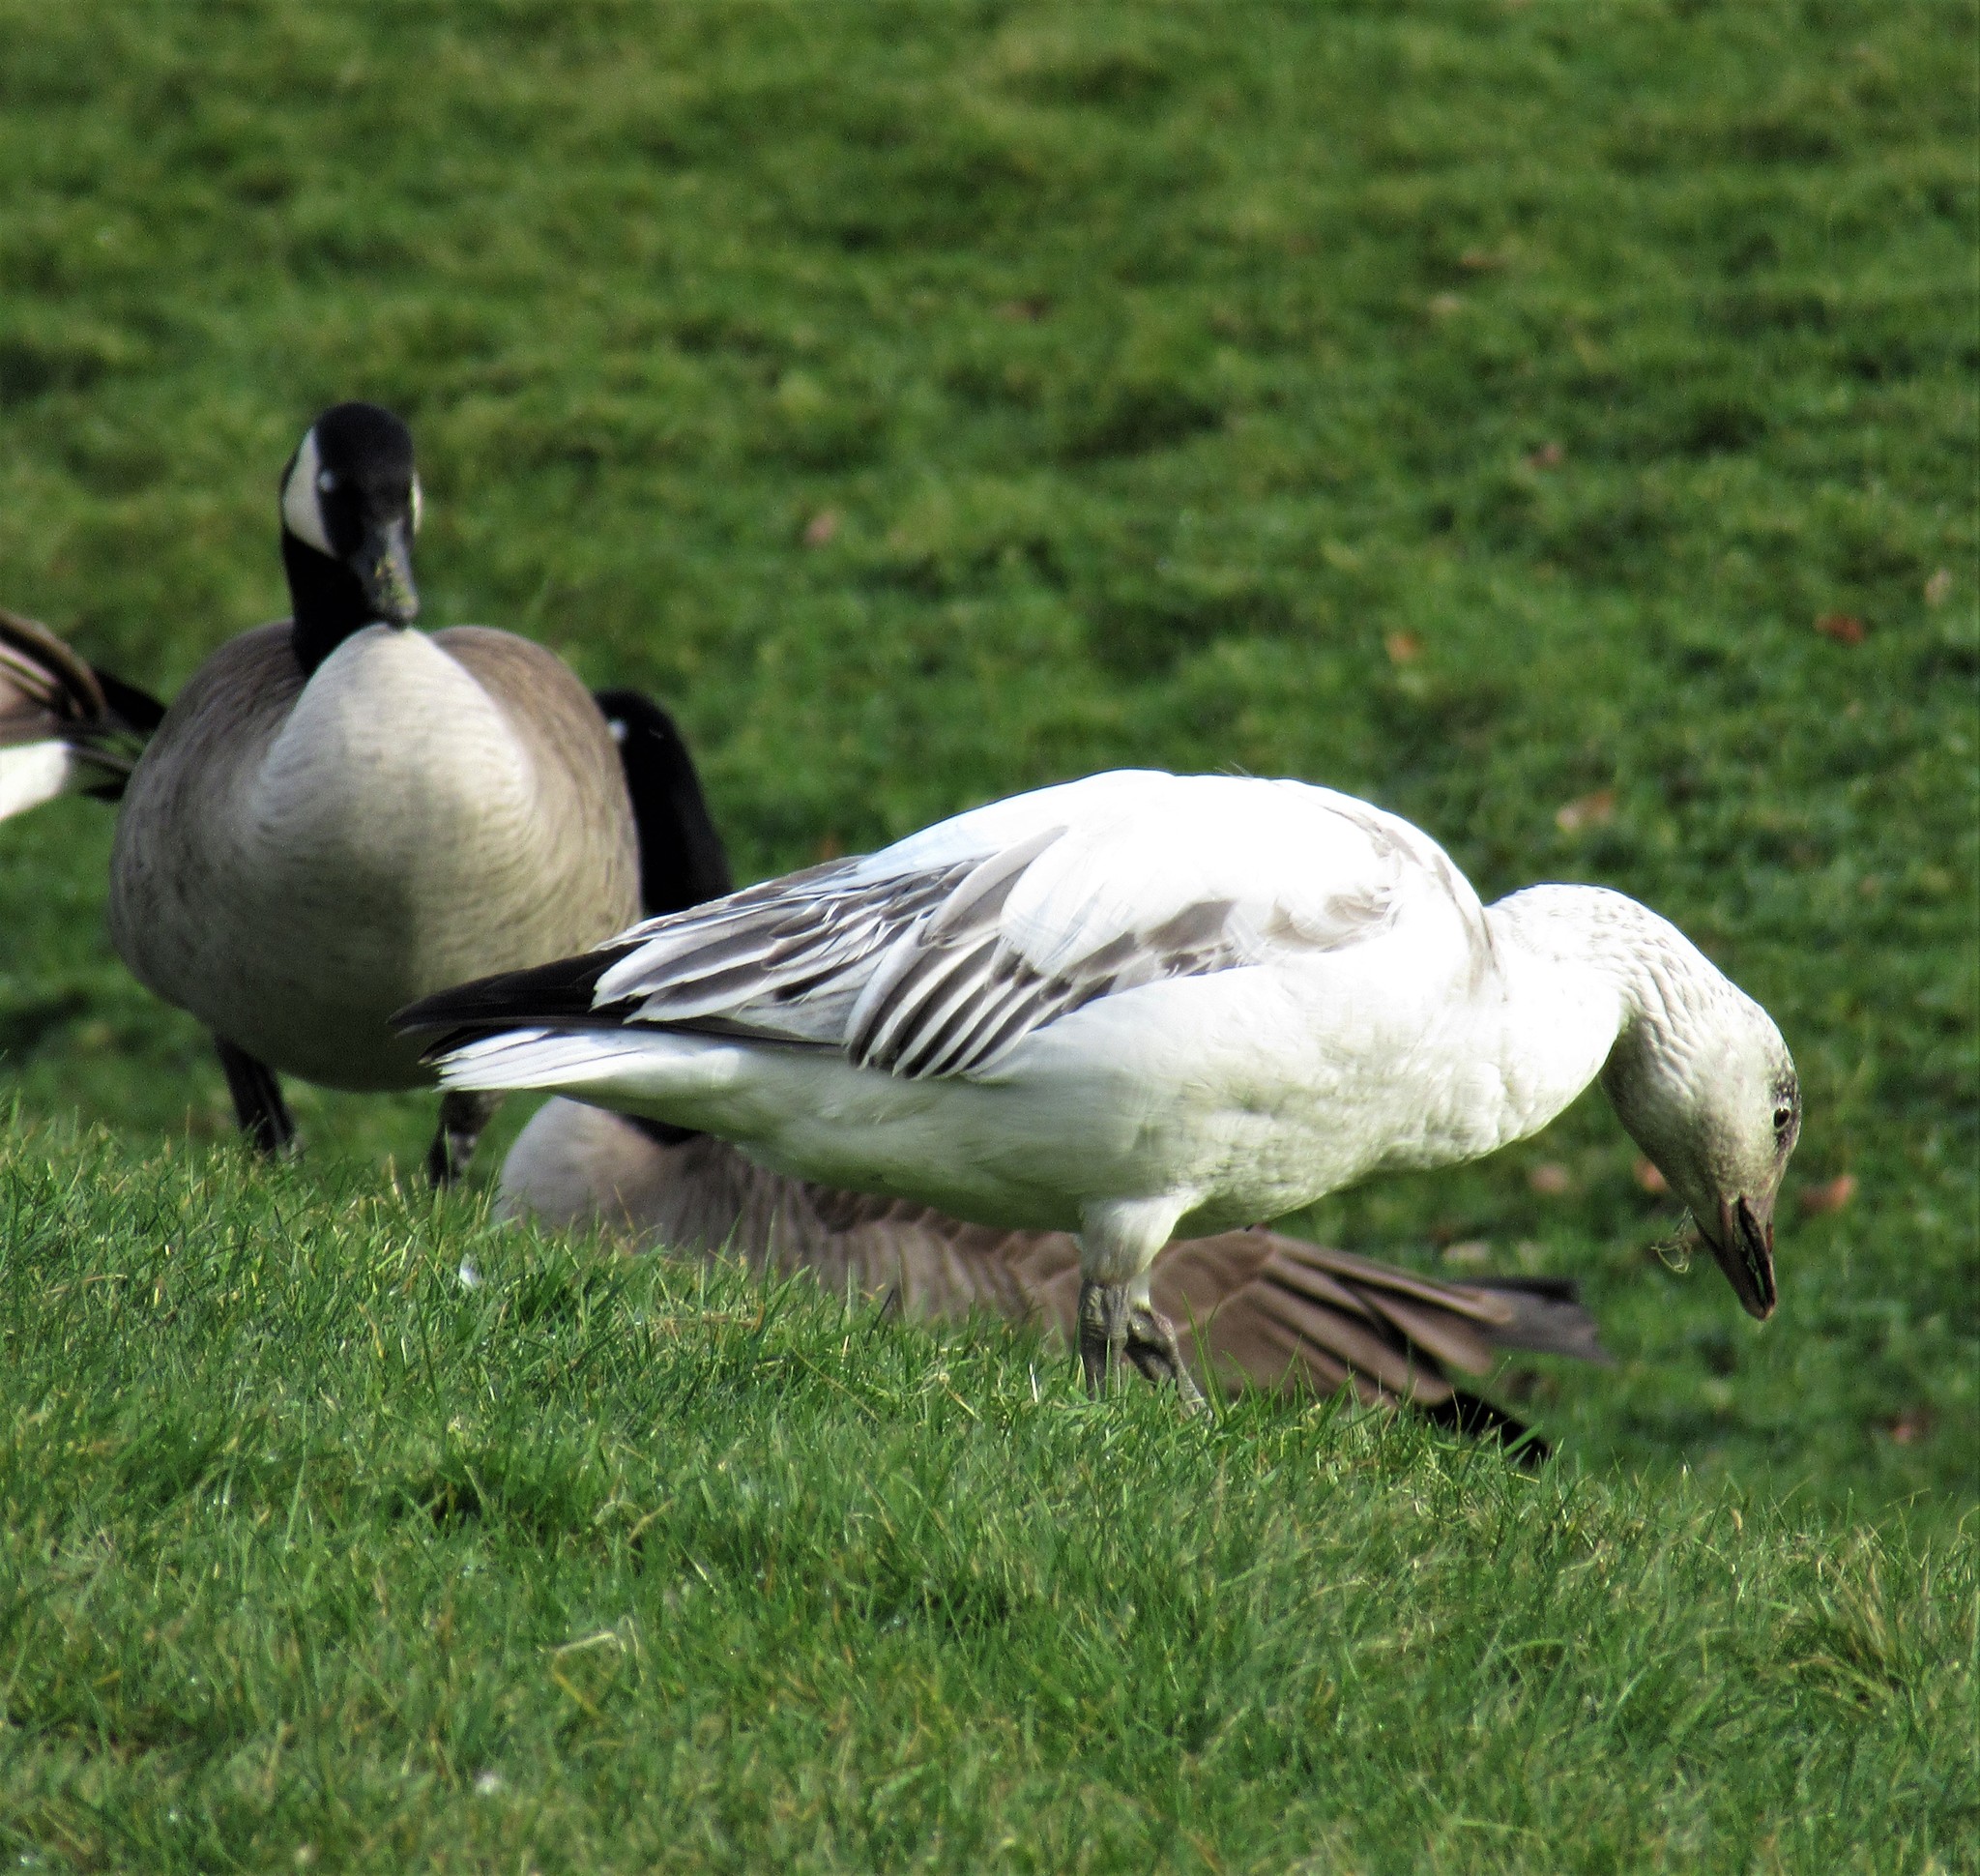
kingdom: Animalia
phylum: Chordata
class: Aves
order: Anseriformes
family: Anatidae
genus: Anser
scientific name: Anser caerulescens
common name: Snow goose
